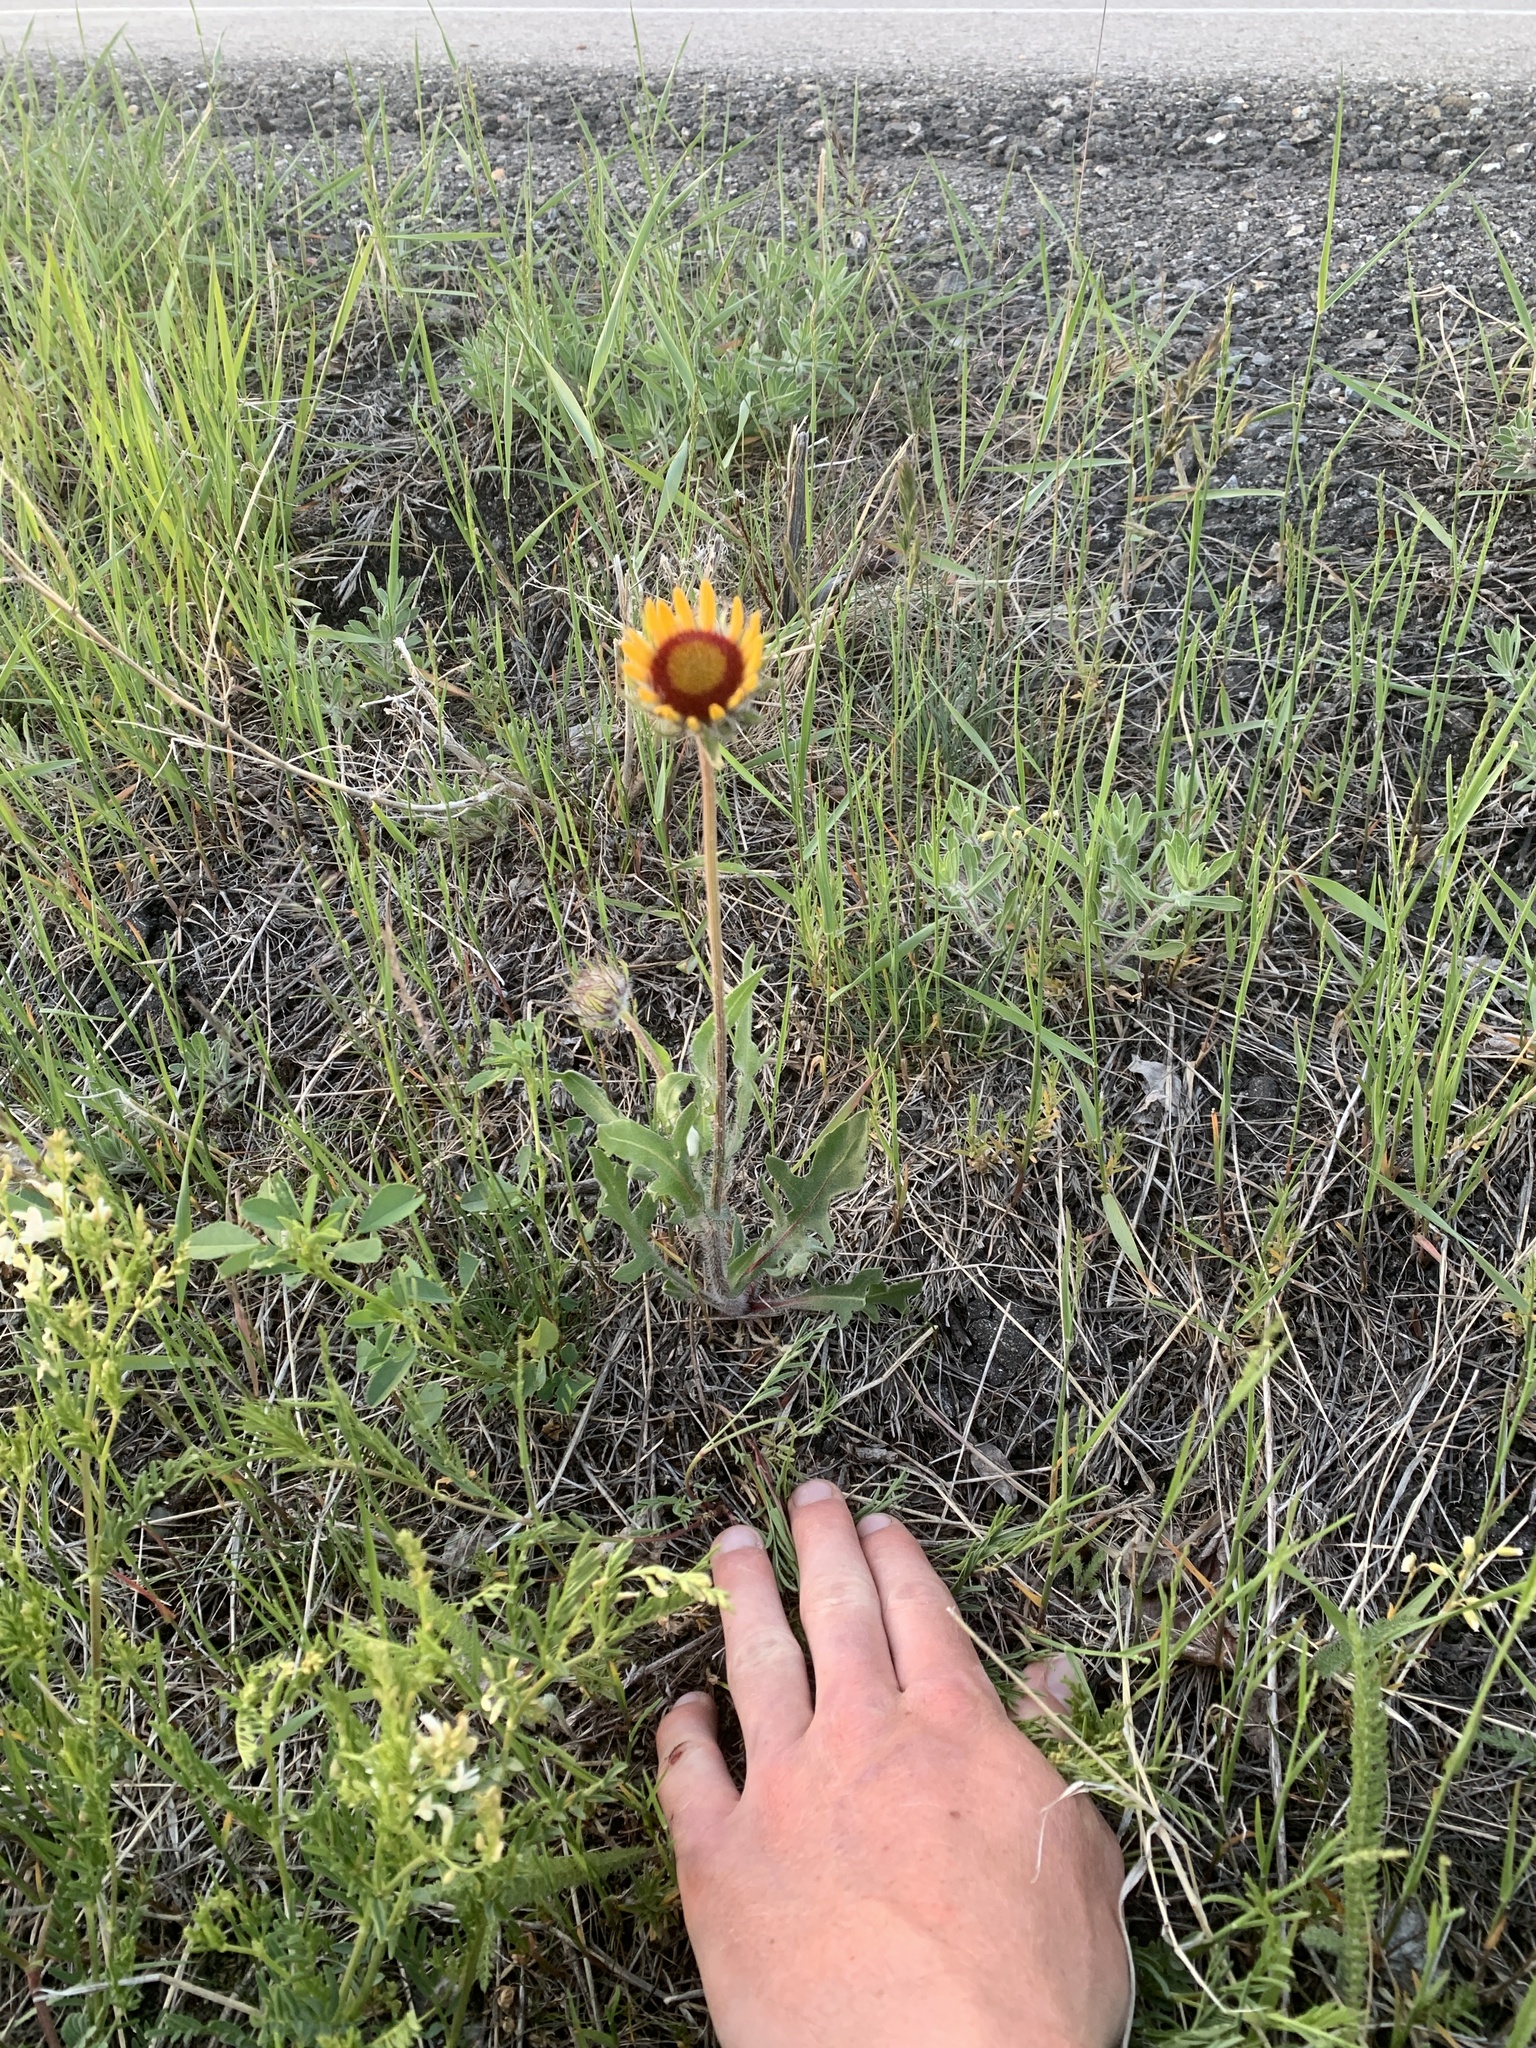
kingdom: Plantae
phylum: Tracheophyta
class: Magnoliopsida
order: Asterales
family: Asteraceae
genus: Gaillardia
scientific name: Gaillardia aristata
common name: Blanket-flower
